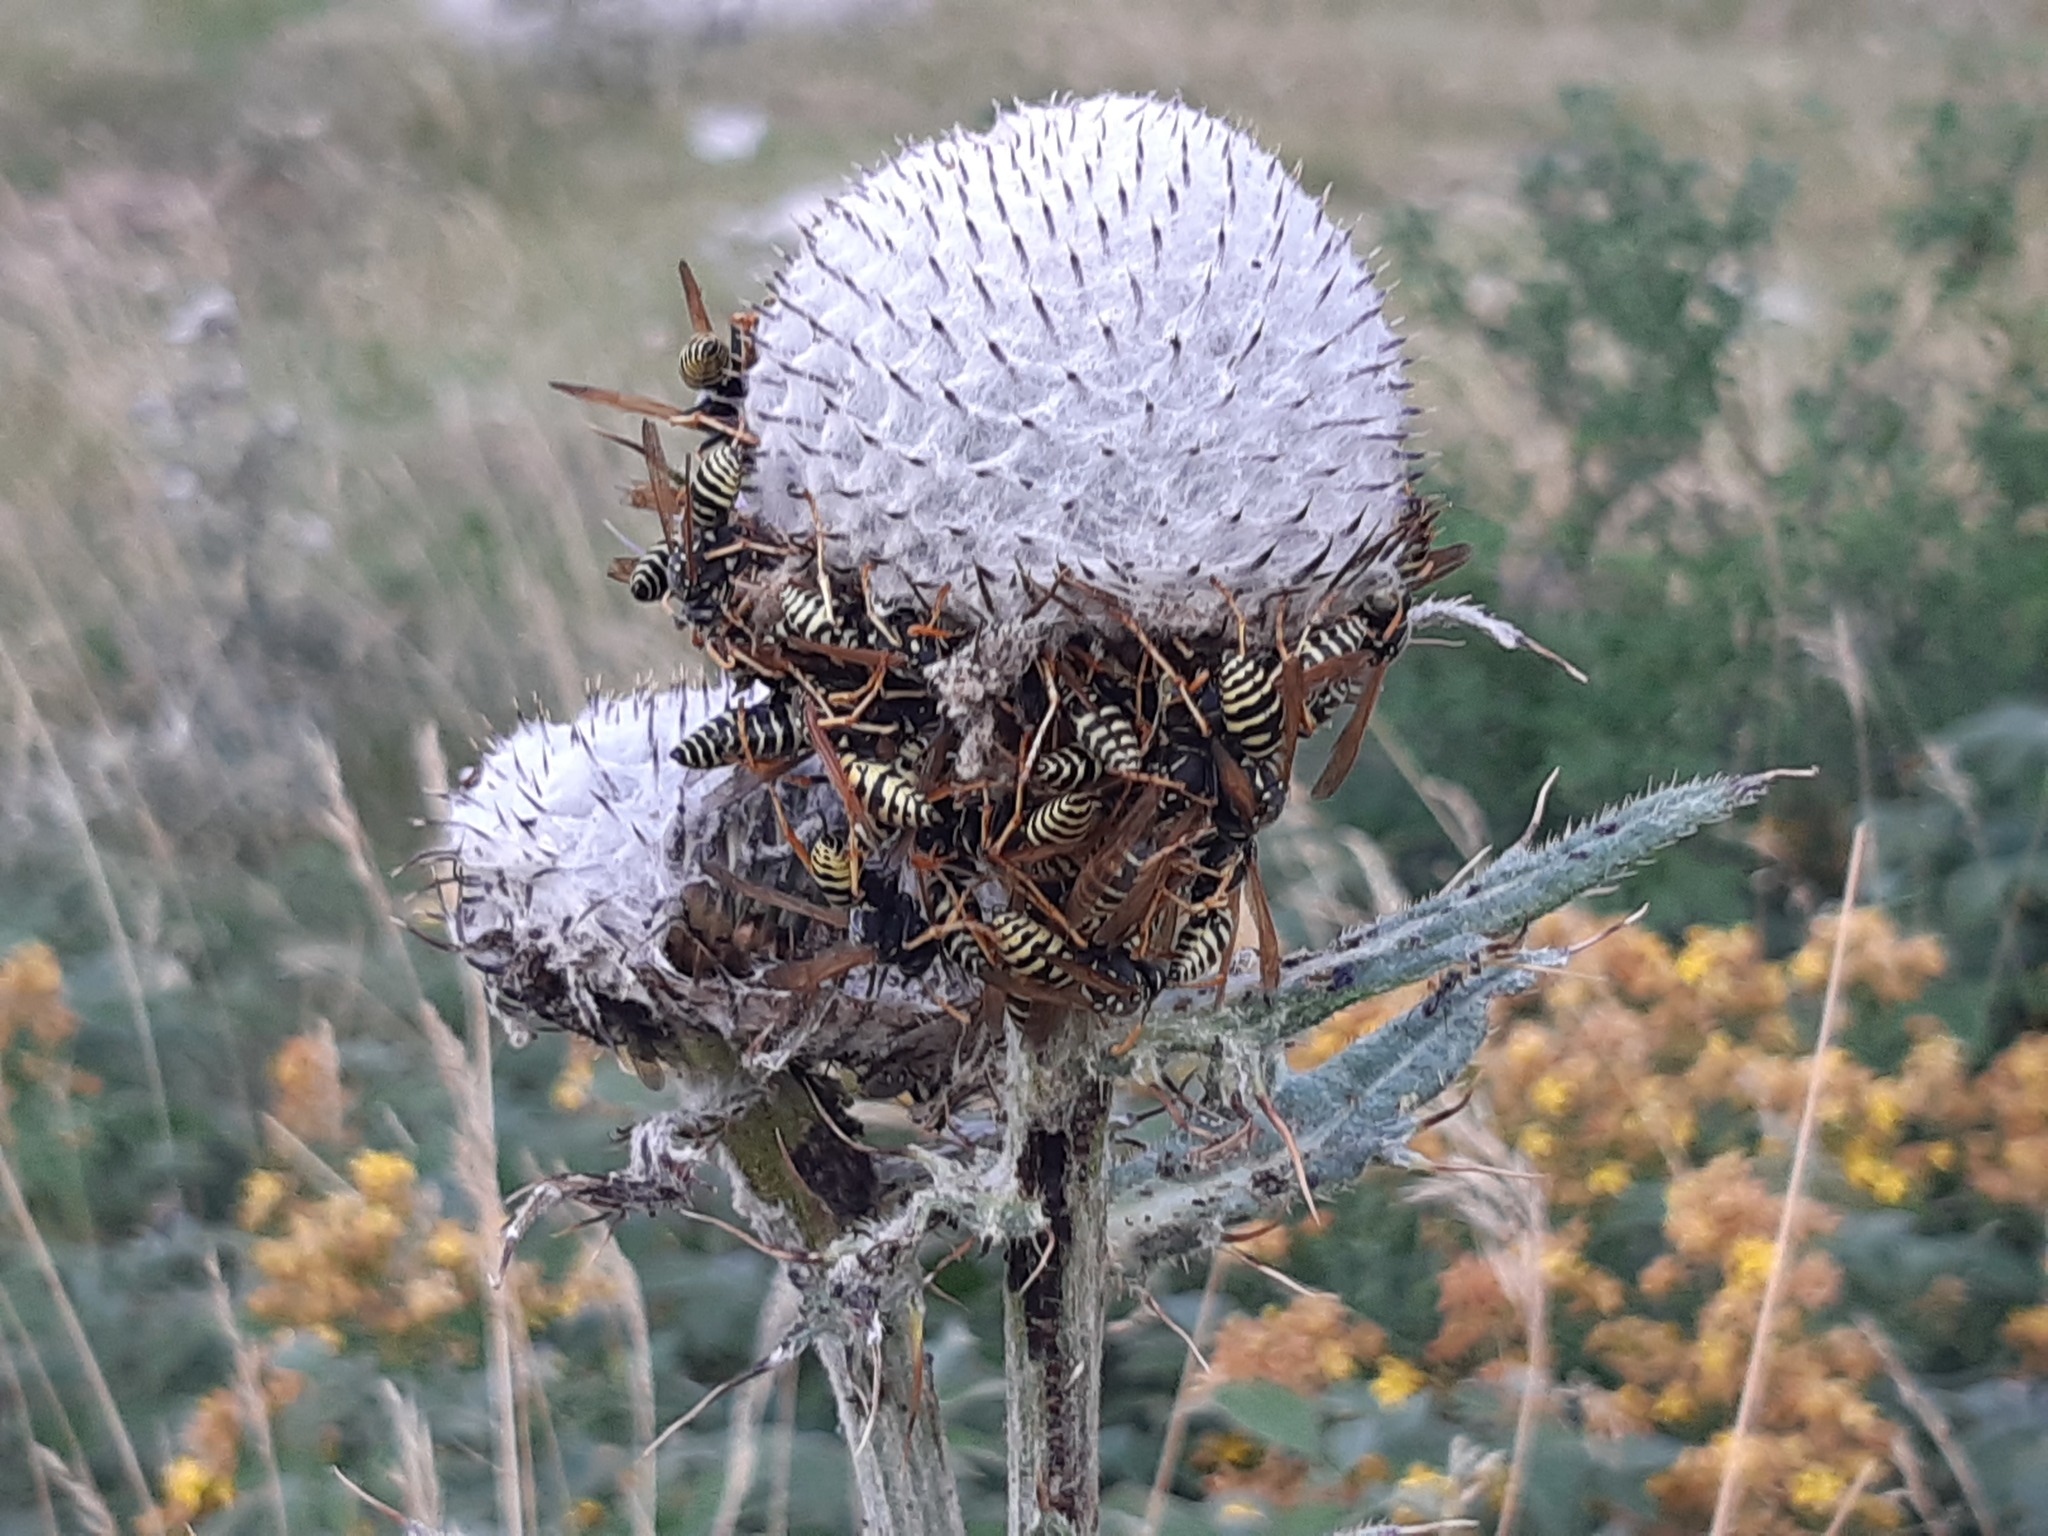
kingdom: Plantae
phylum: Tracheophyta
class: Magnoliopsida
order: Asterales
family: Asteraceae
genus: Lophiolepis
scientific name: Lophiolepis eriophora
